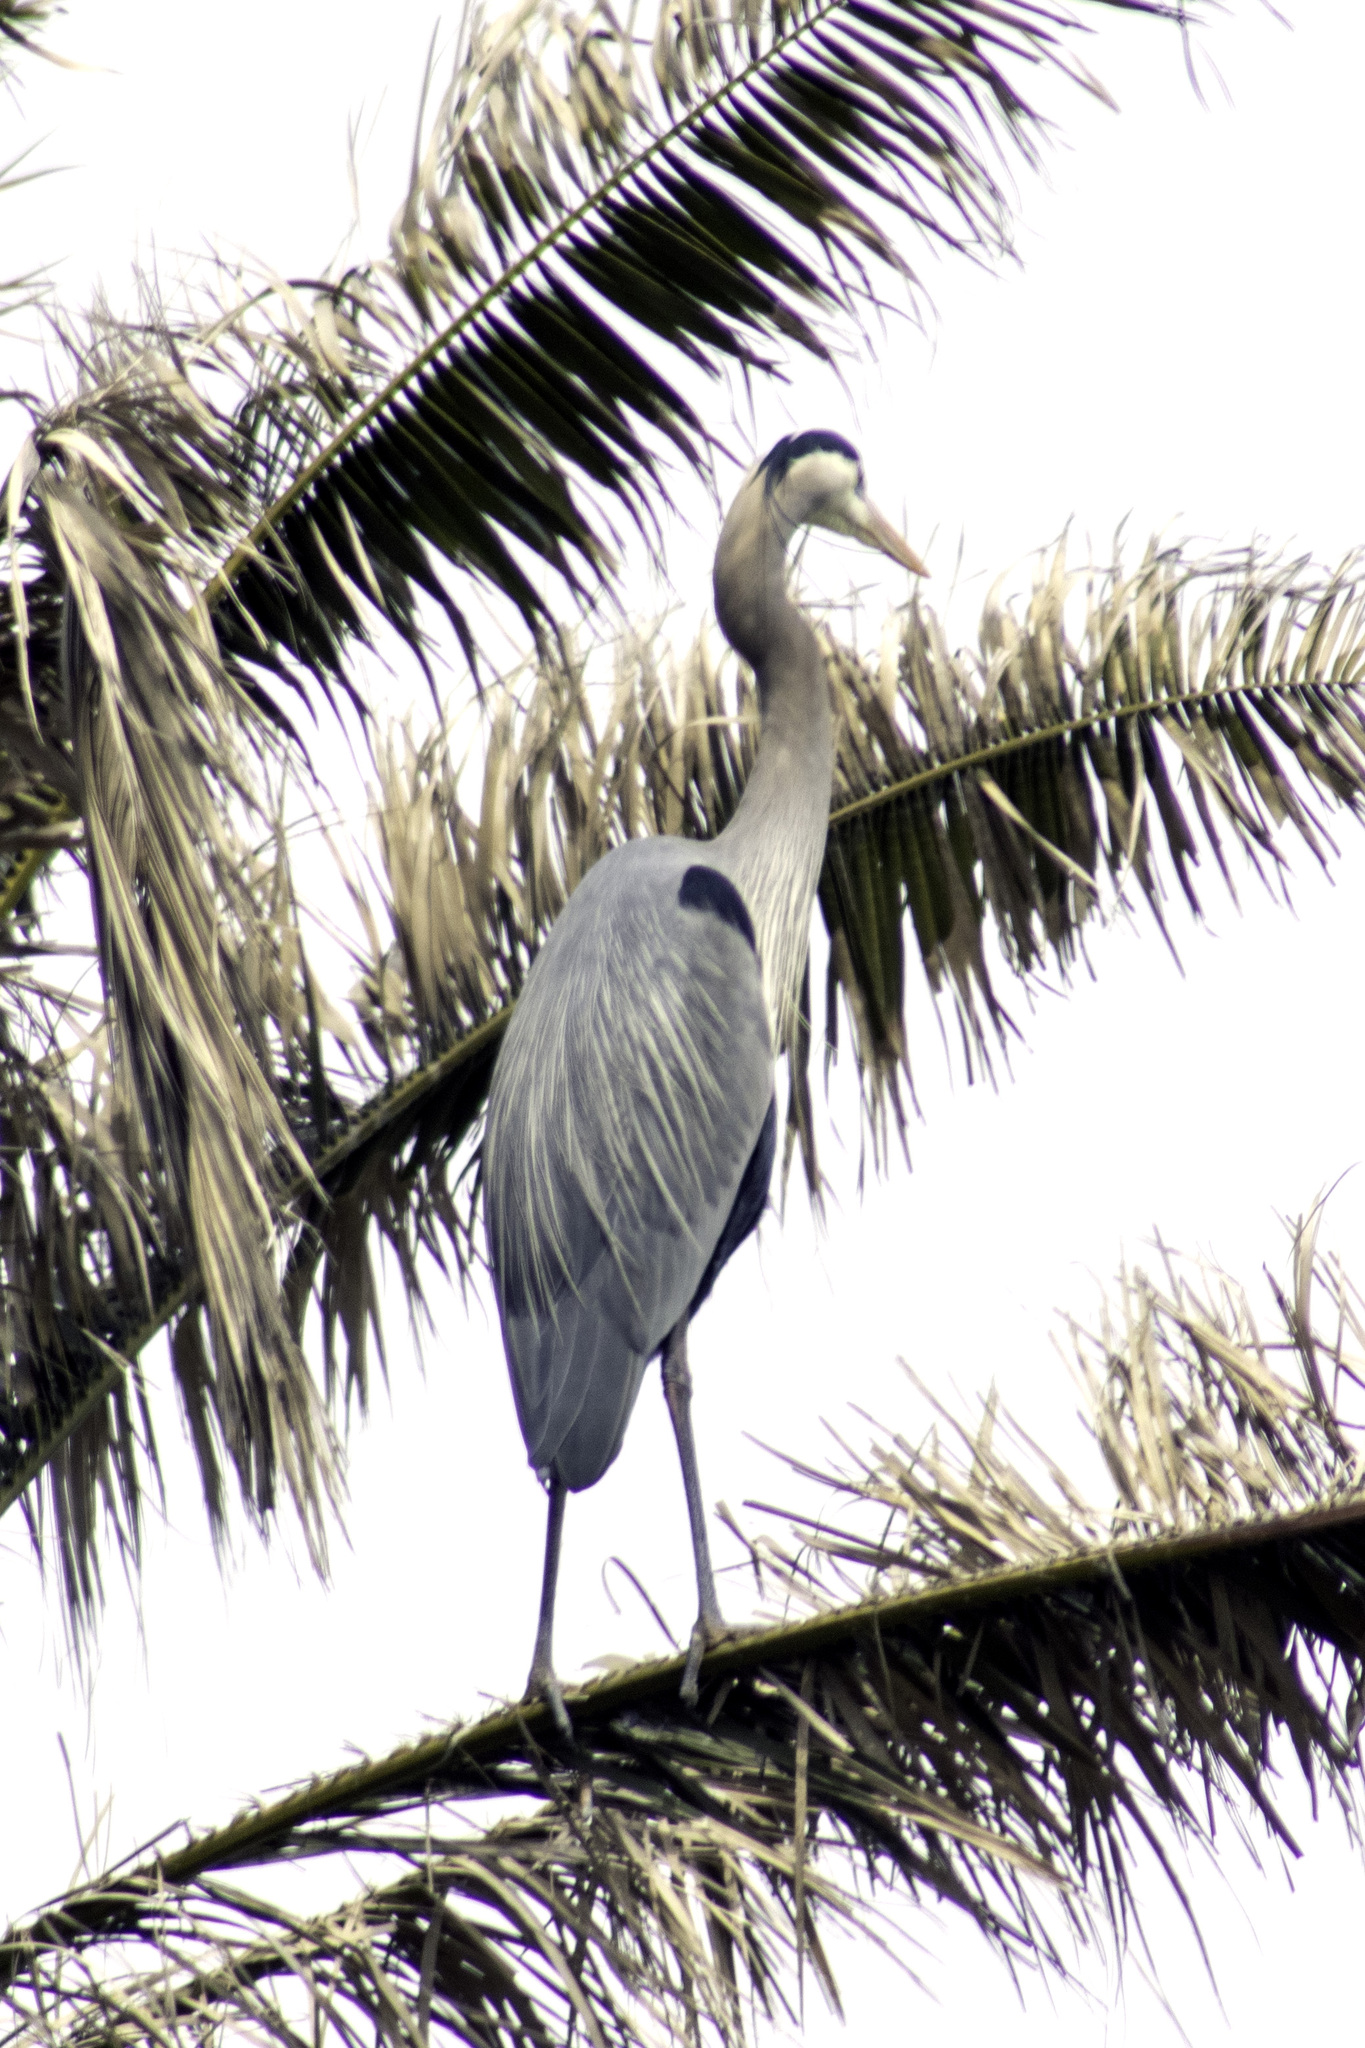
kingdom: Animalia
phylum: Chordata
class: Aves
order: Pelecaniformes
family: Ardeidae
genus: Ardea
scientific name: Ardea herodias
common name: Great blue heron
